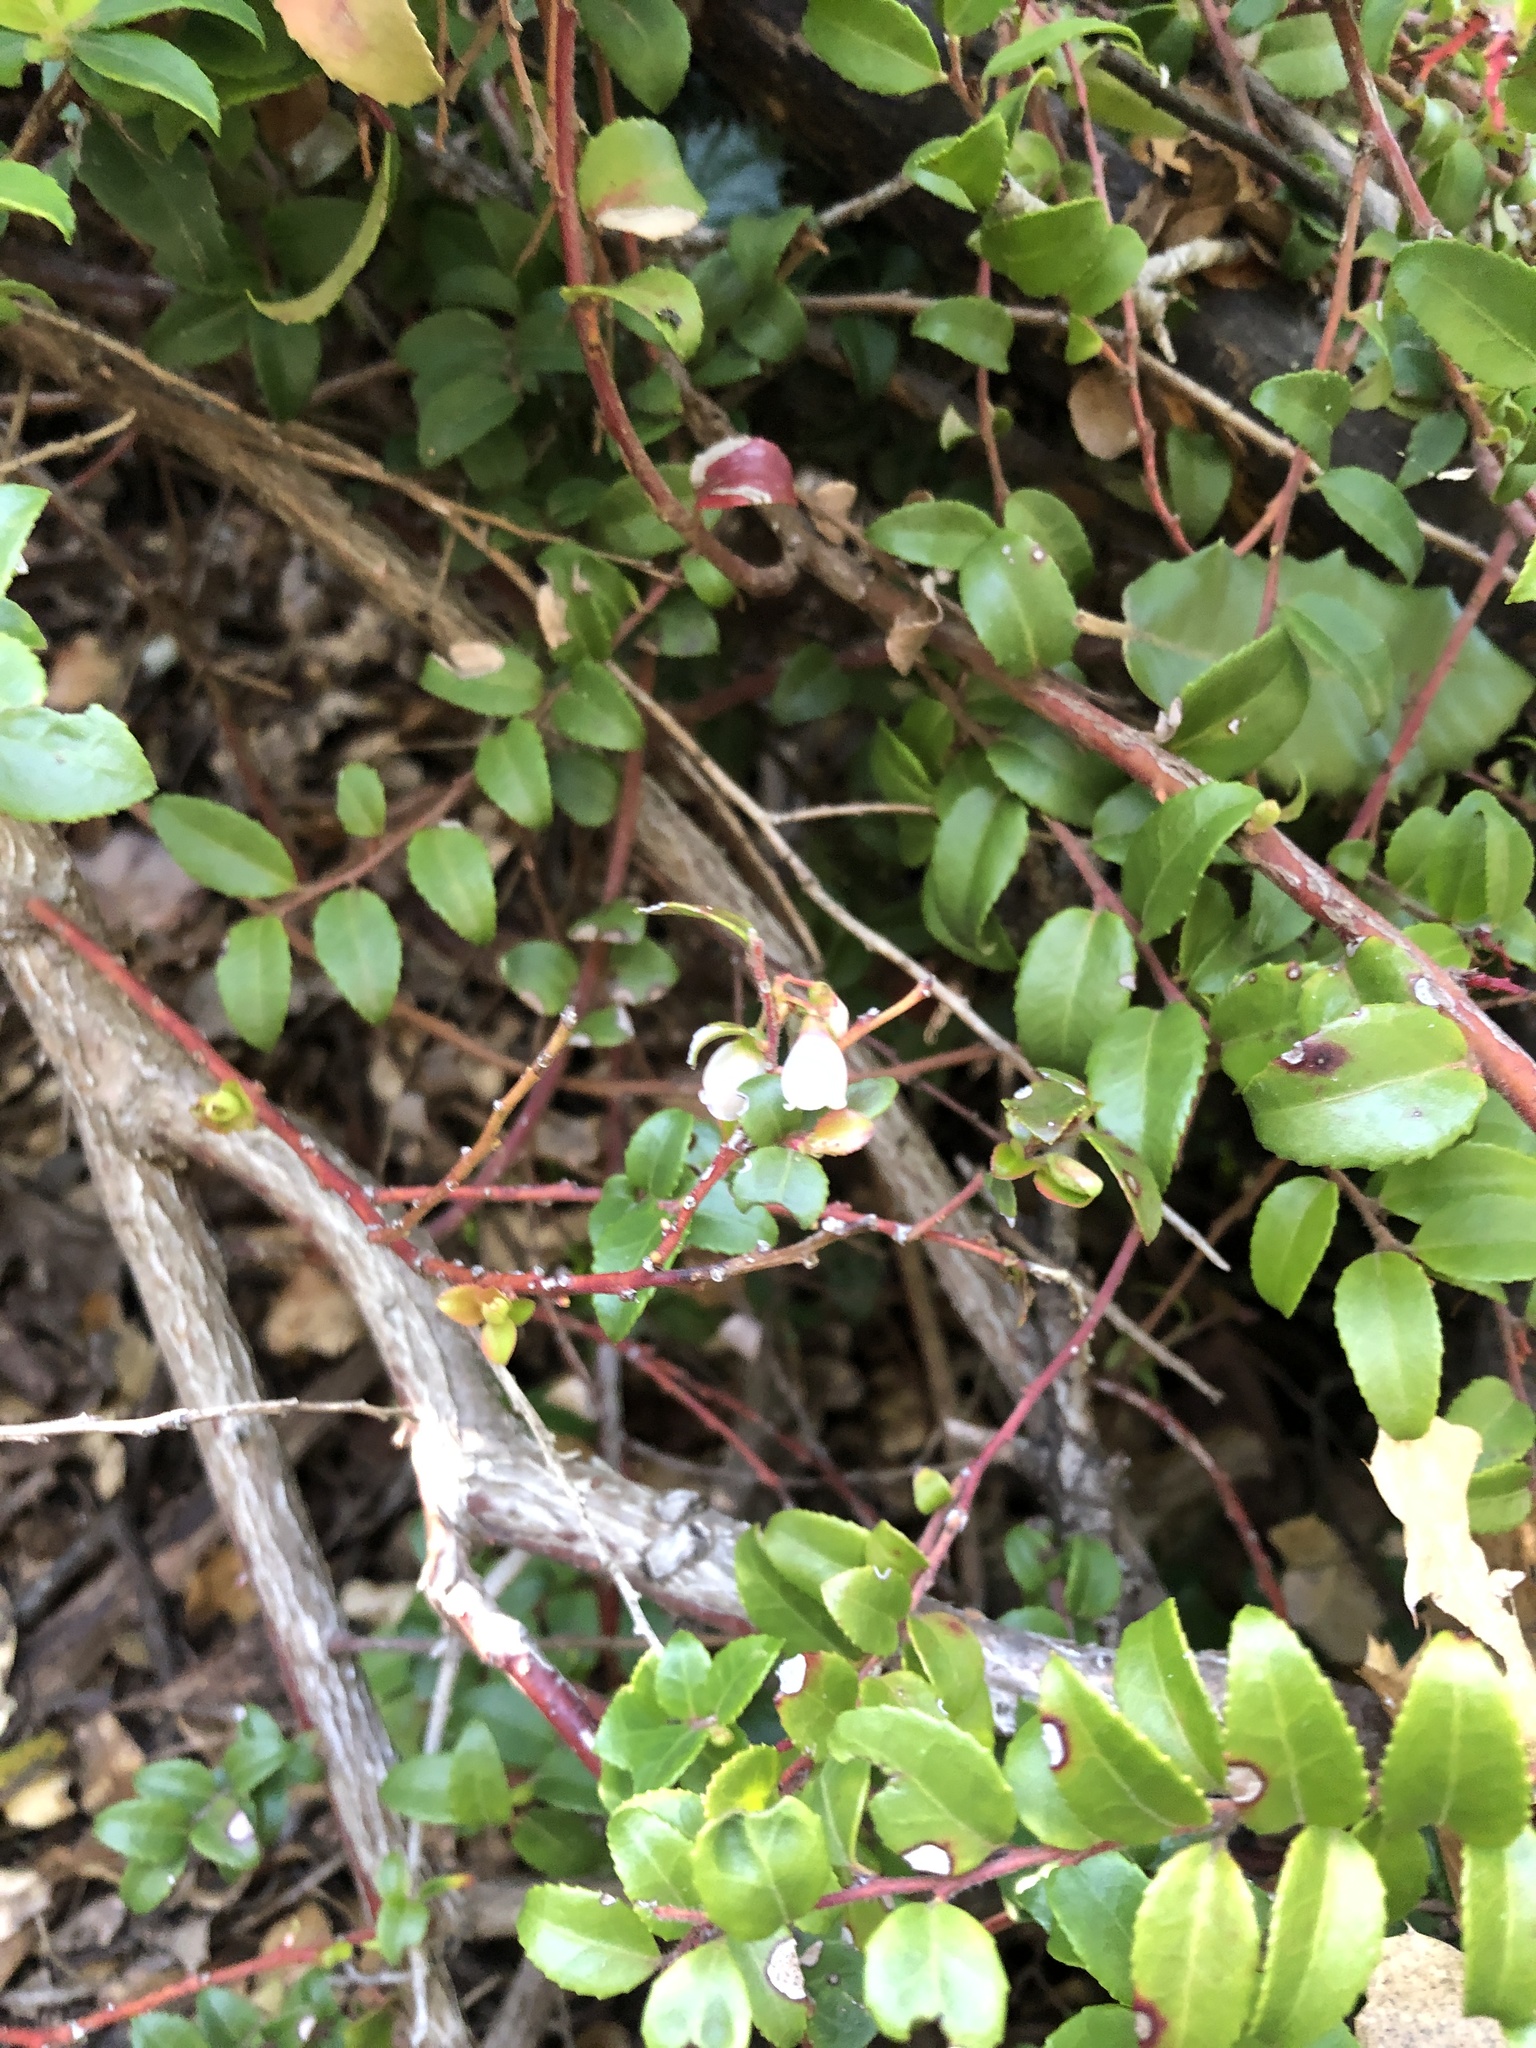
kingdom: Plantae
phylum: Tracheophyta
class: Magnoliopsida
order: Ericales
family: Ericaceae
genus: Vaccinium
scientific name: Vaccinium ovatum
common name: California-huckleberry
